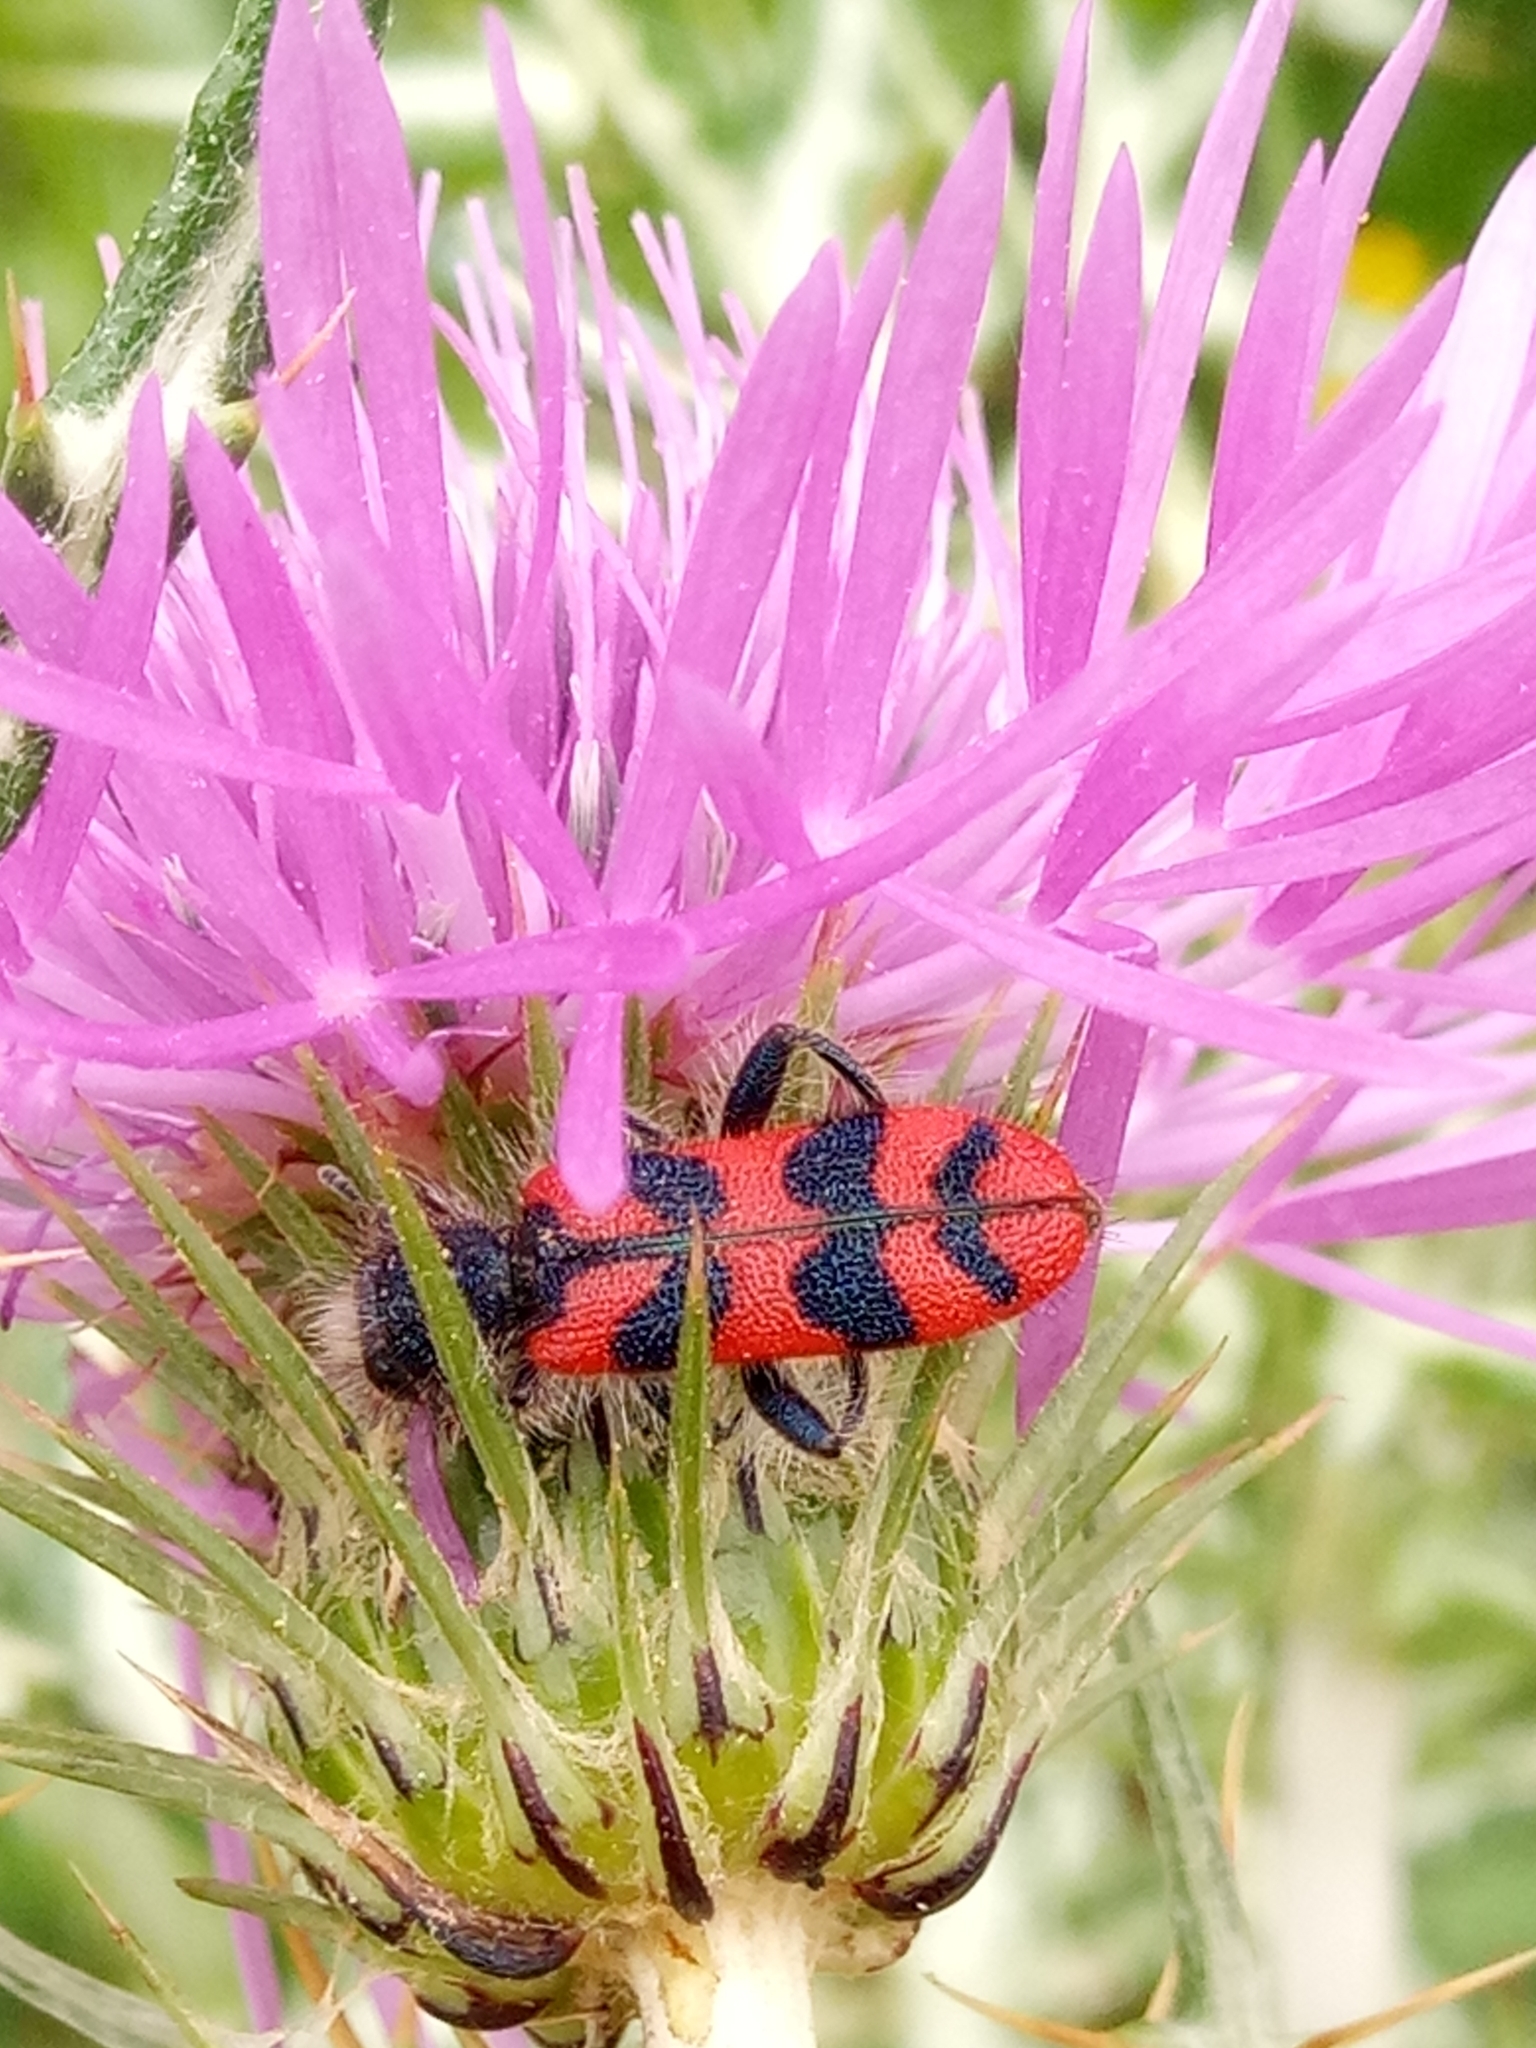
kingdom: Animalia
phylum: Arthropoda
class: Insecta
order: Coleoptera
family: Cleridae
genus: Trichodes
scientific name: Trichodes umbellatarum
